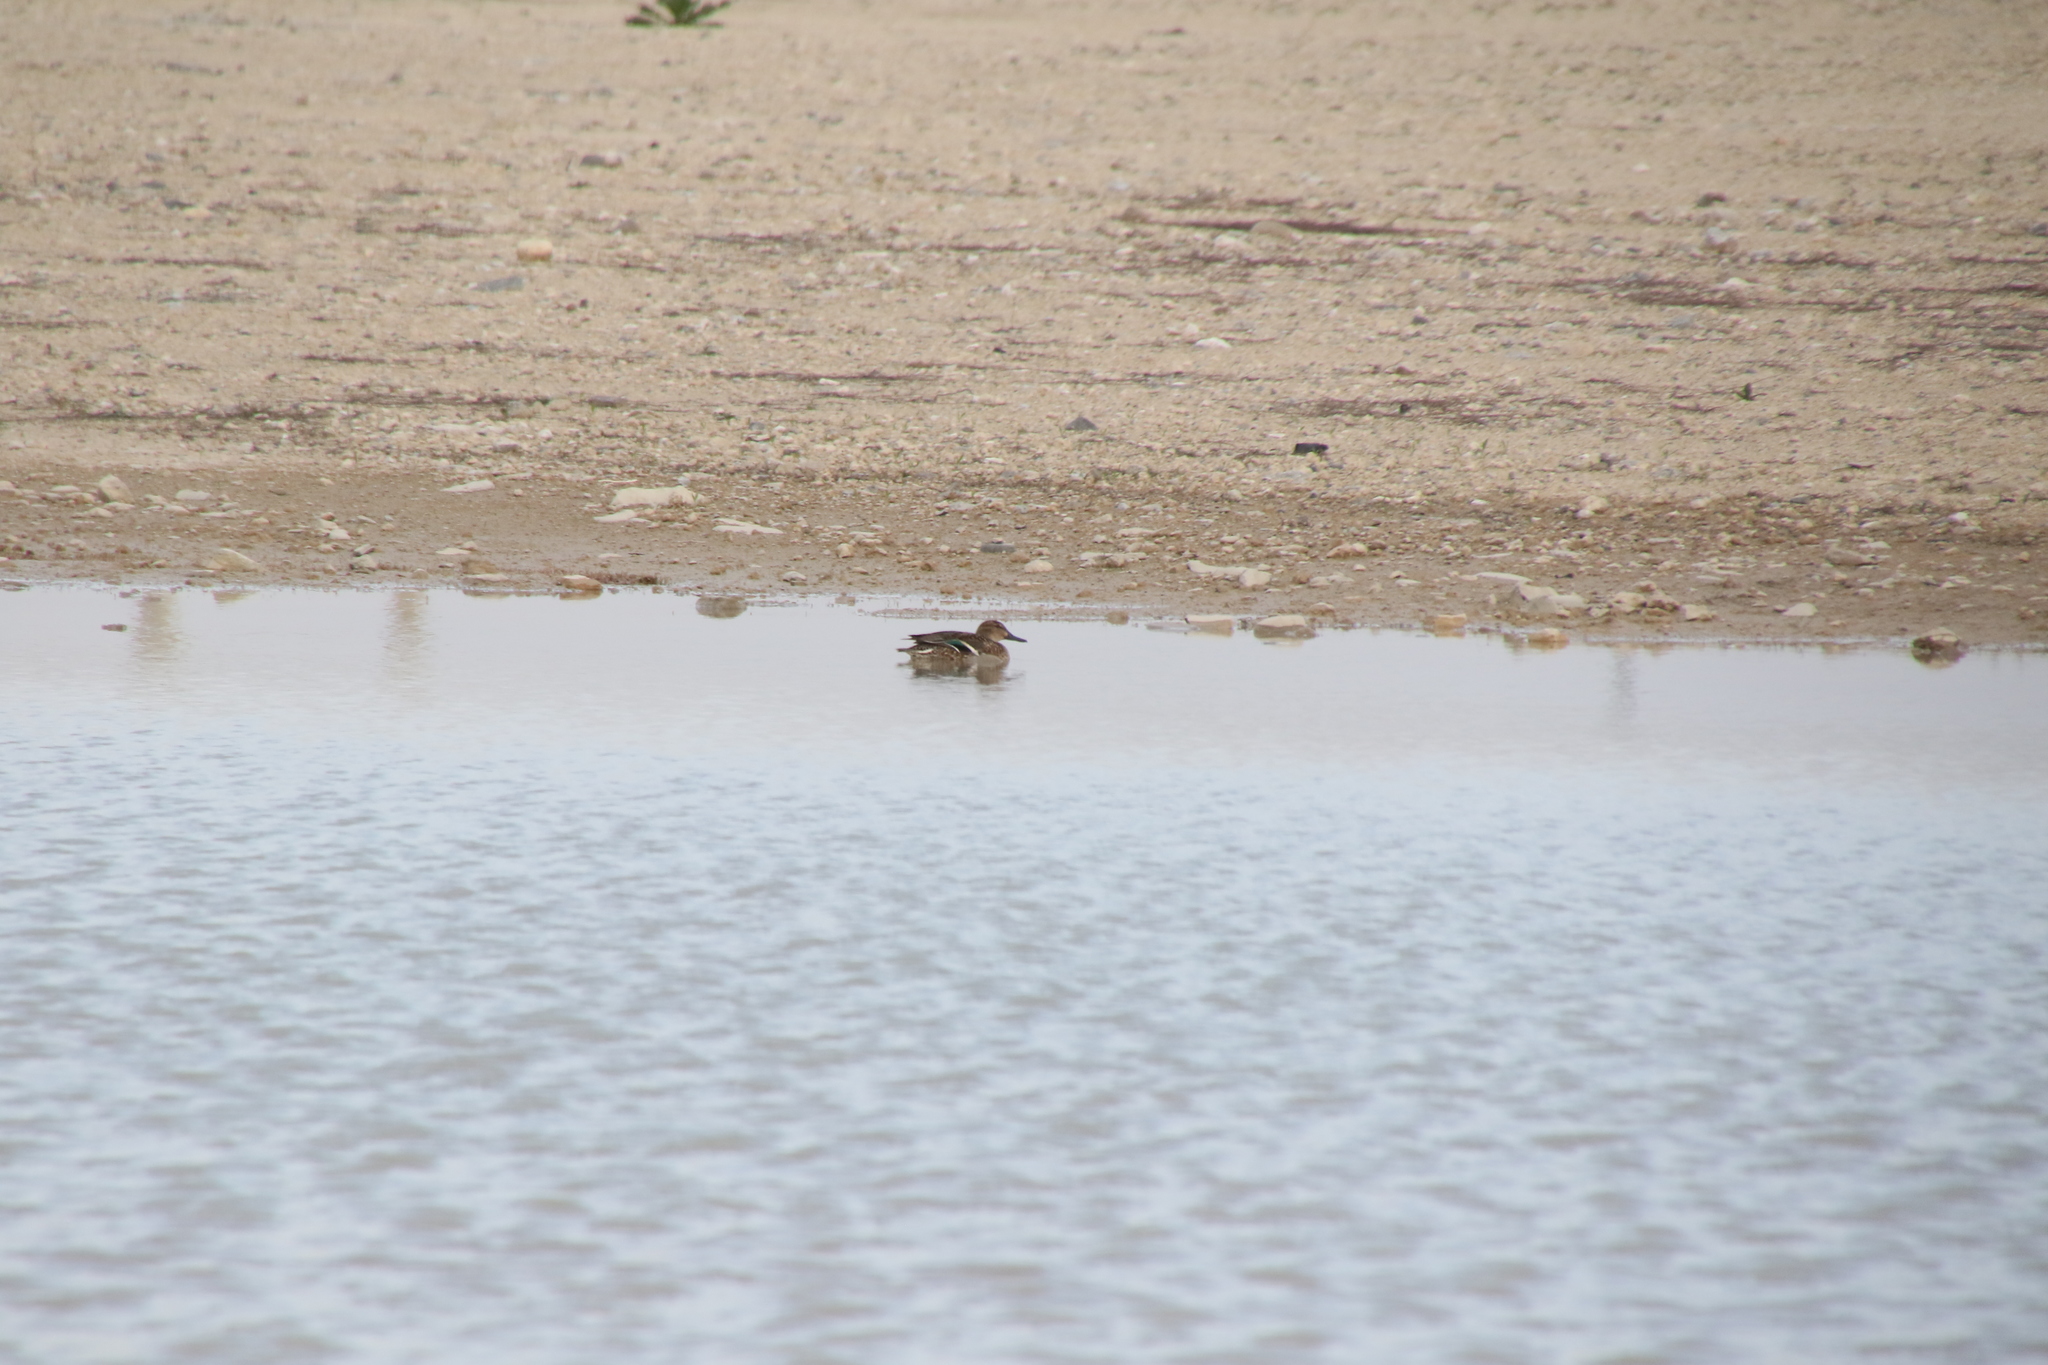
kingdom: Animalia
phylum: Chordata
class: Aves
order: Anseriformes
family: Anatidae
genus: Anas
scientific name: Anas crecca
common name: Eurasian teal
